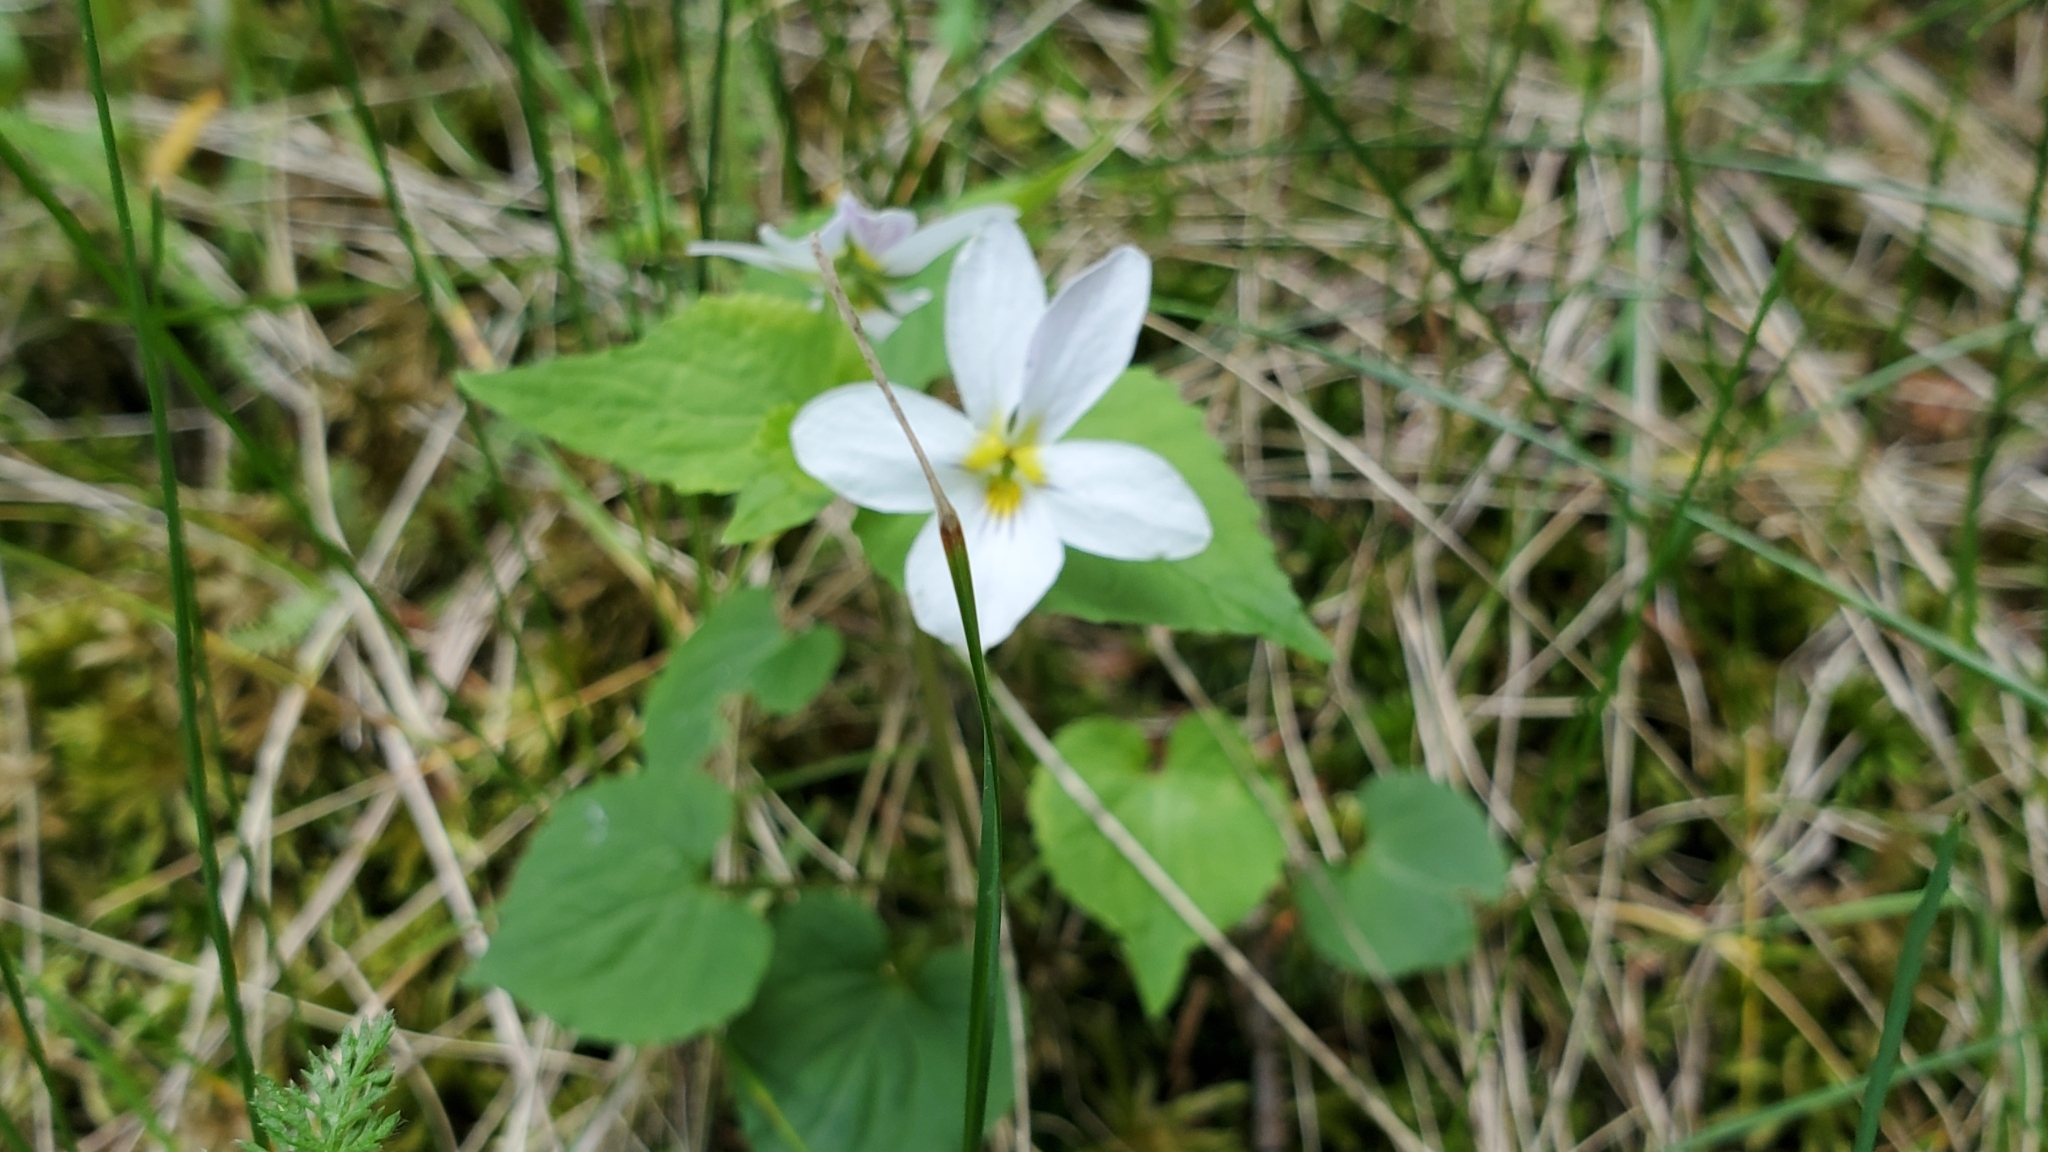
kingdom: Plantae
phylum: Tracheophyta
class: Magnoliopsida
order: Malpighiales
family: Violaceae
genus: Viola
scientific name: Viola canadensis
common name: Canada violet
